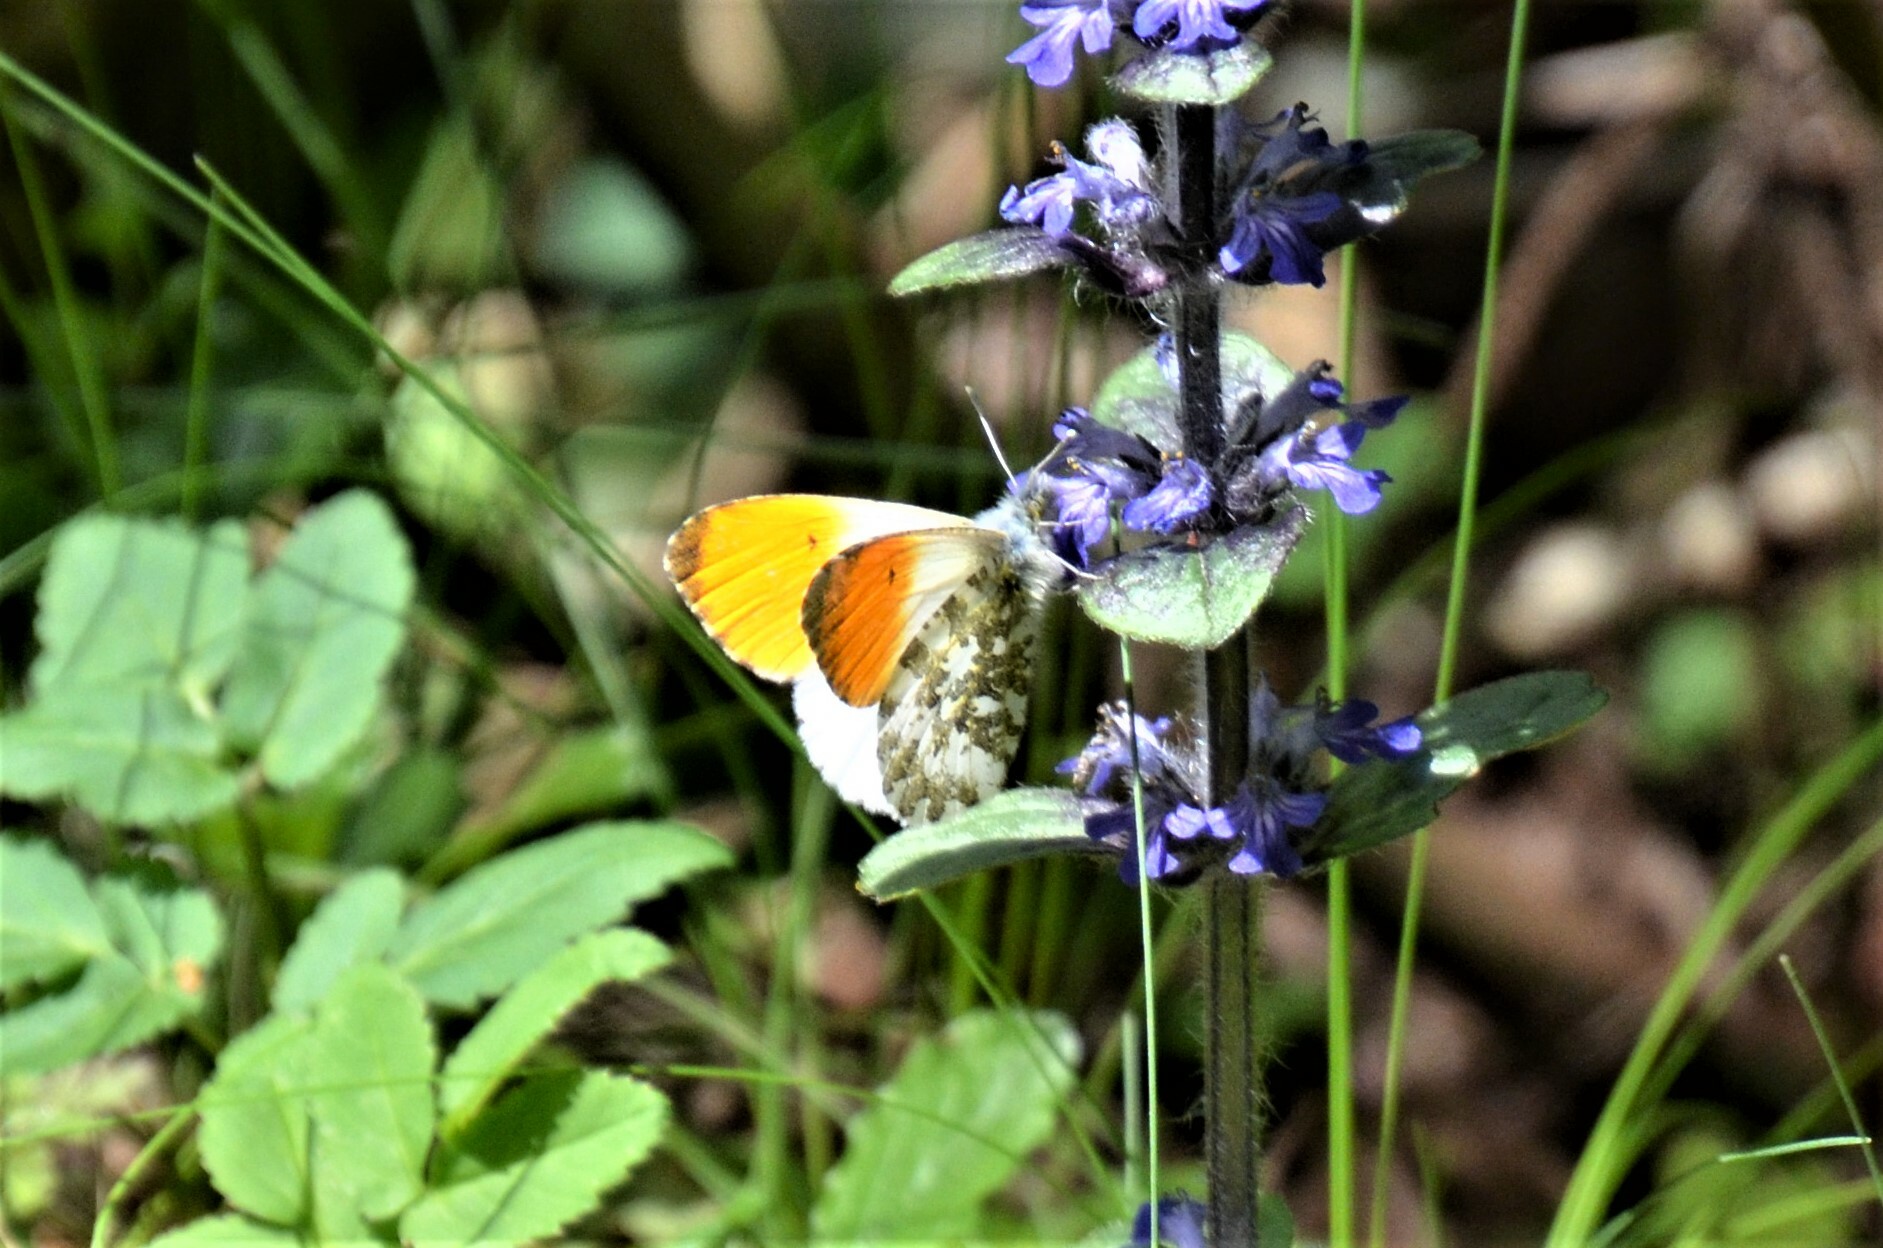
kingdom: Animalia
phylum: Arthropoda
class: Insecta
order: Lepidoptera
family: Pieridae
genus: Anthocharis
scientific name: Anthocharis cardamines
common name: Orange-tip
